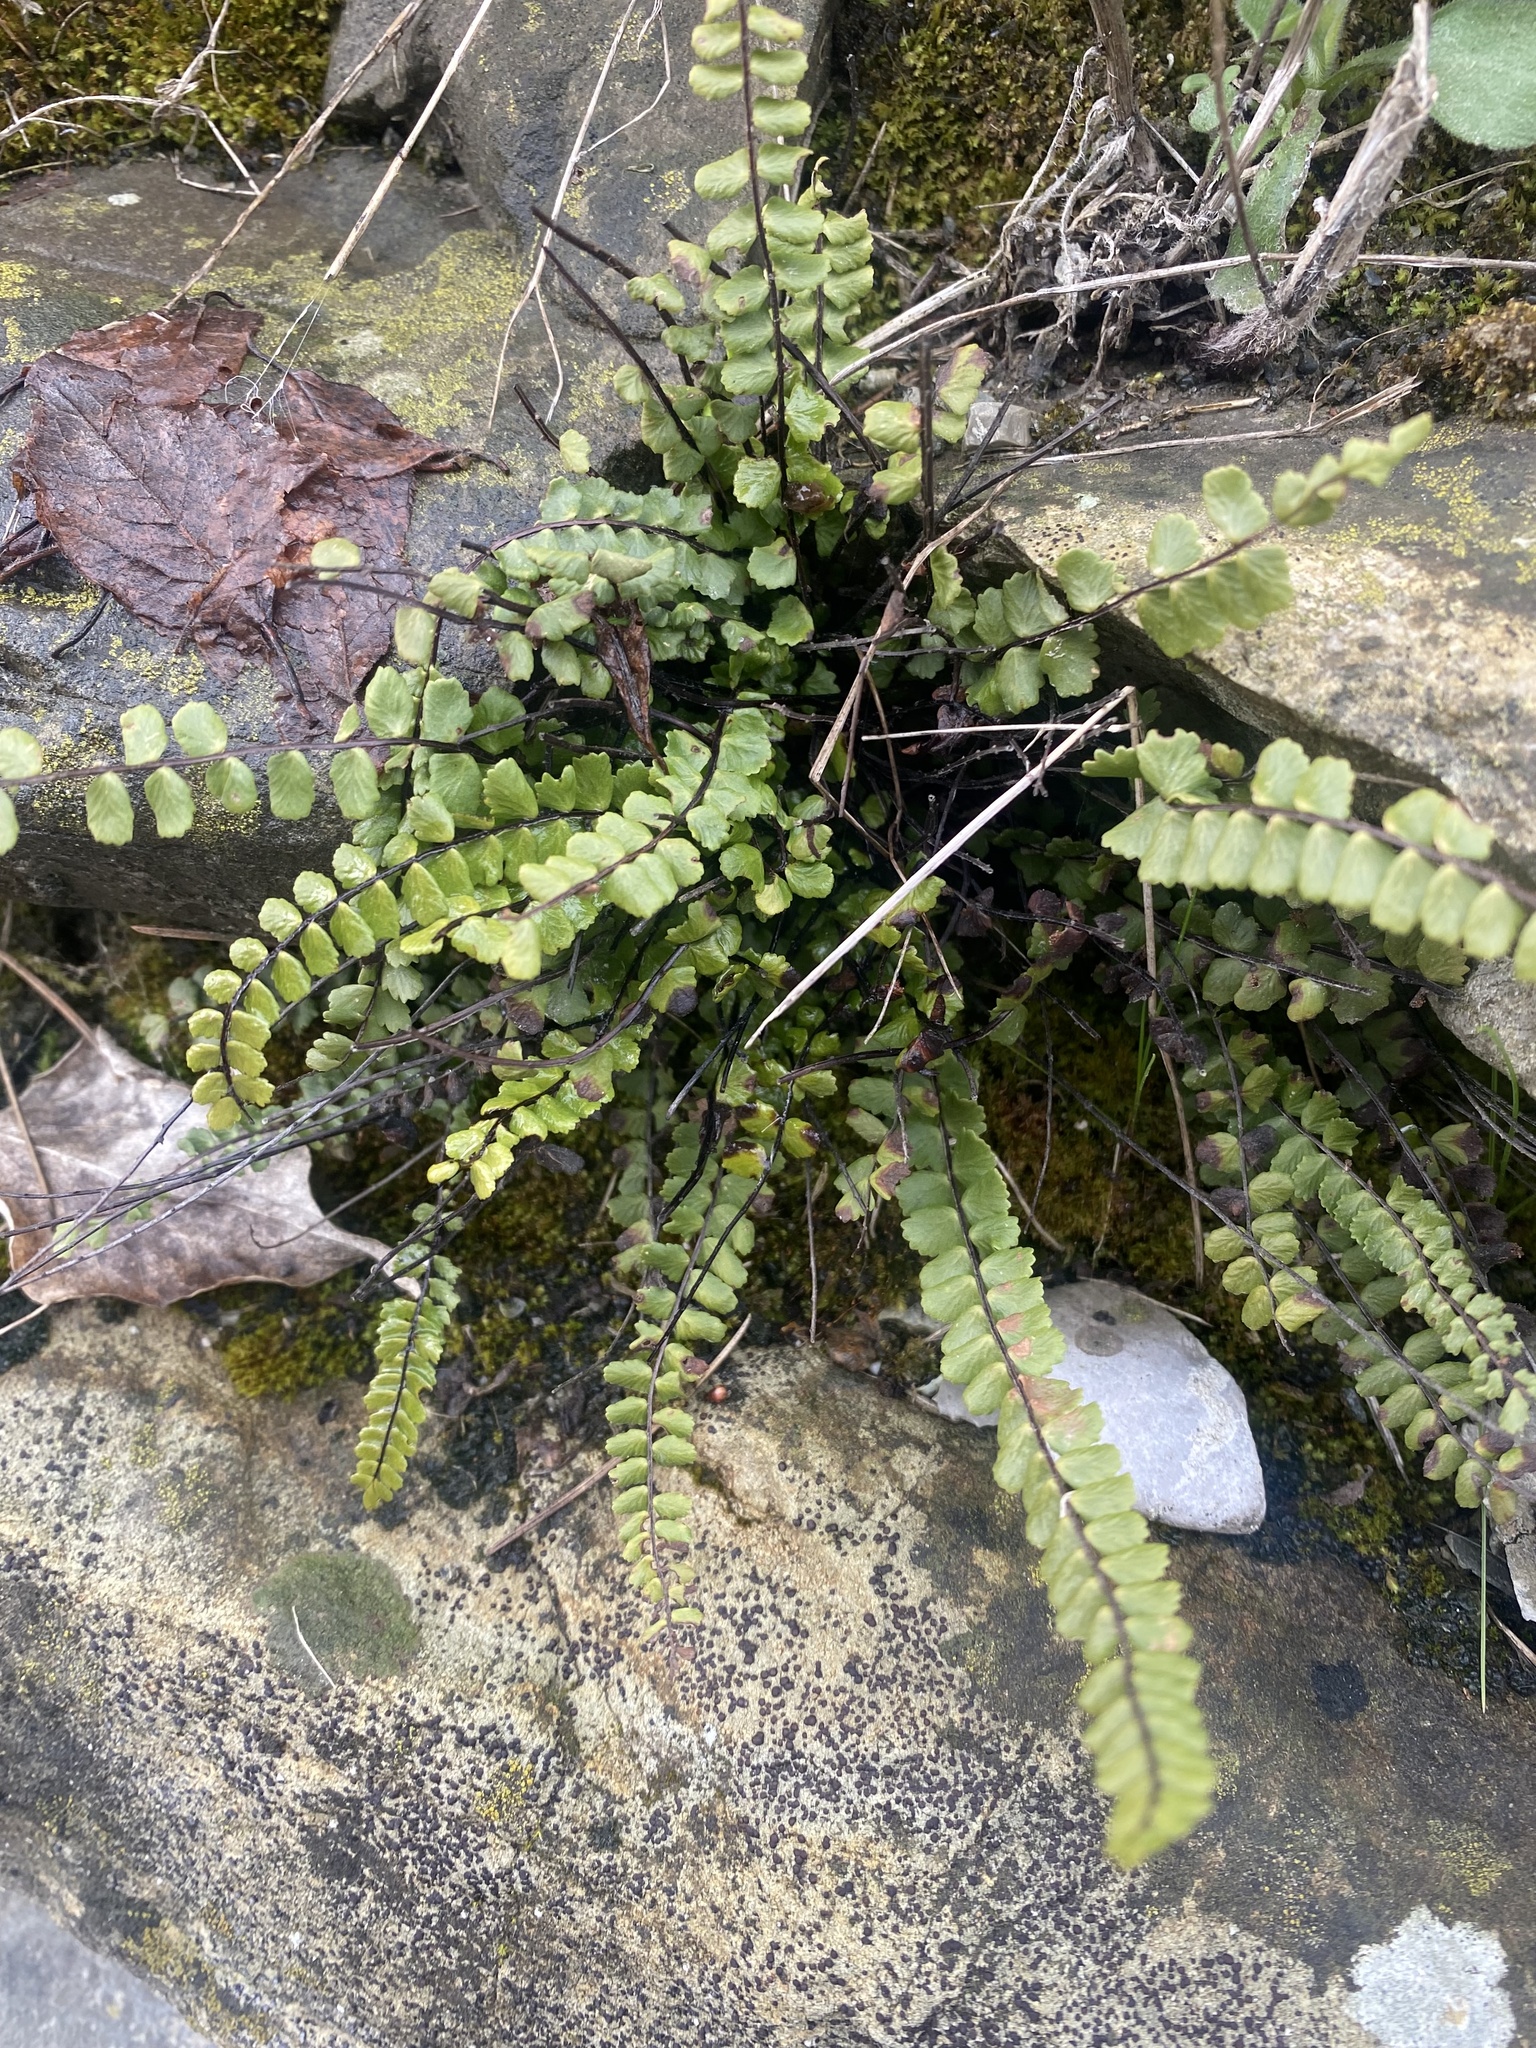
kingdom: Plantae
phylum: Tracheophyta
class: Polypodiopsida
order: Polypodiales
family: Aspleniaceae
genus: Asplenium
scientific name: Asplenium trichomanes
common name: Maidenhair spleenwort
